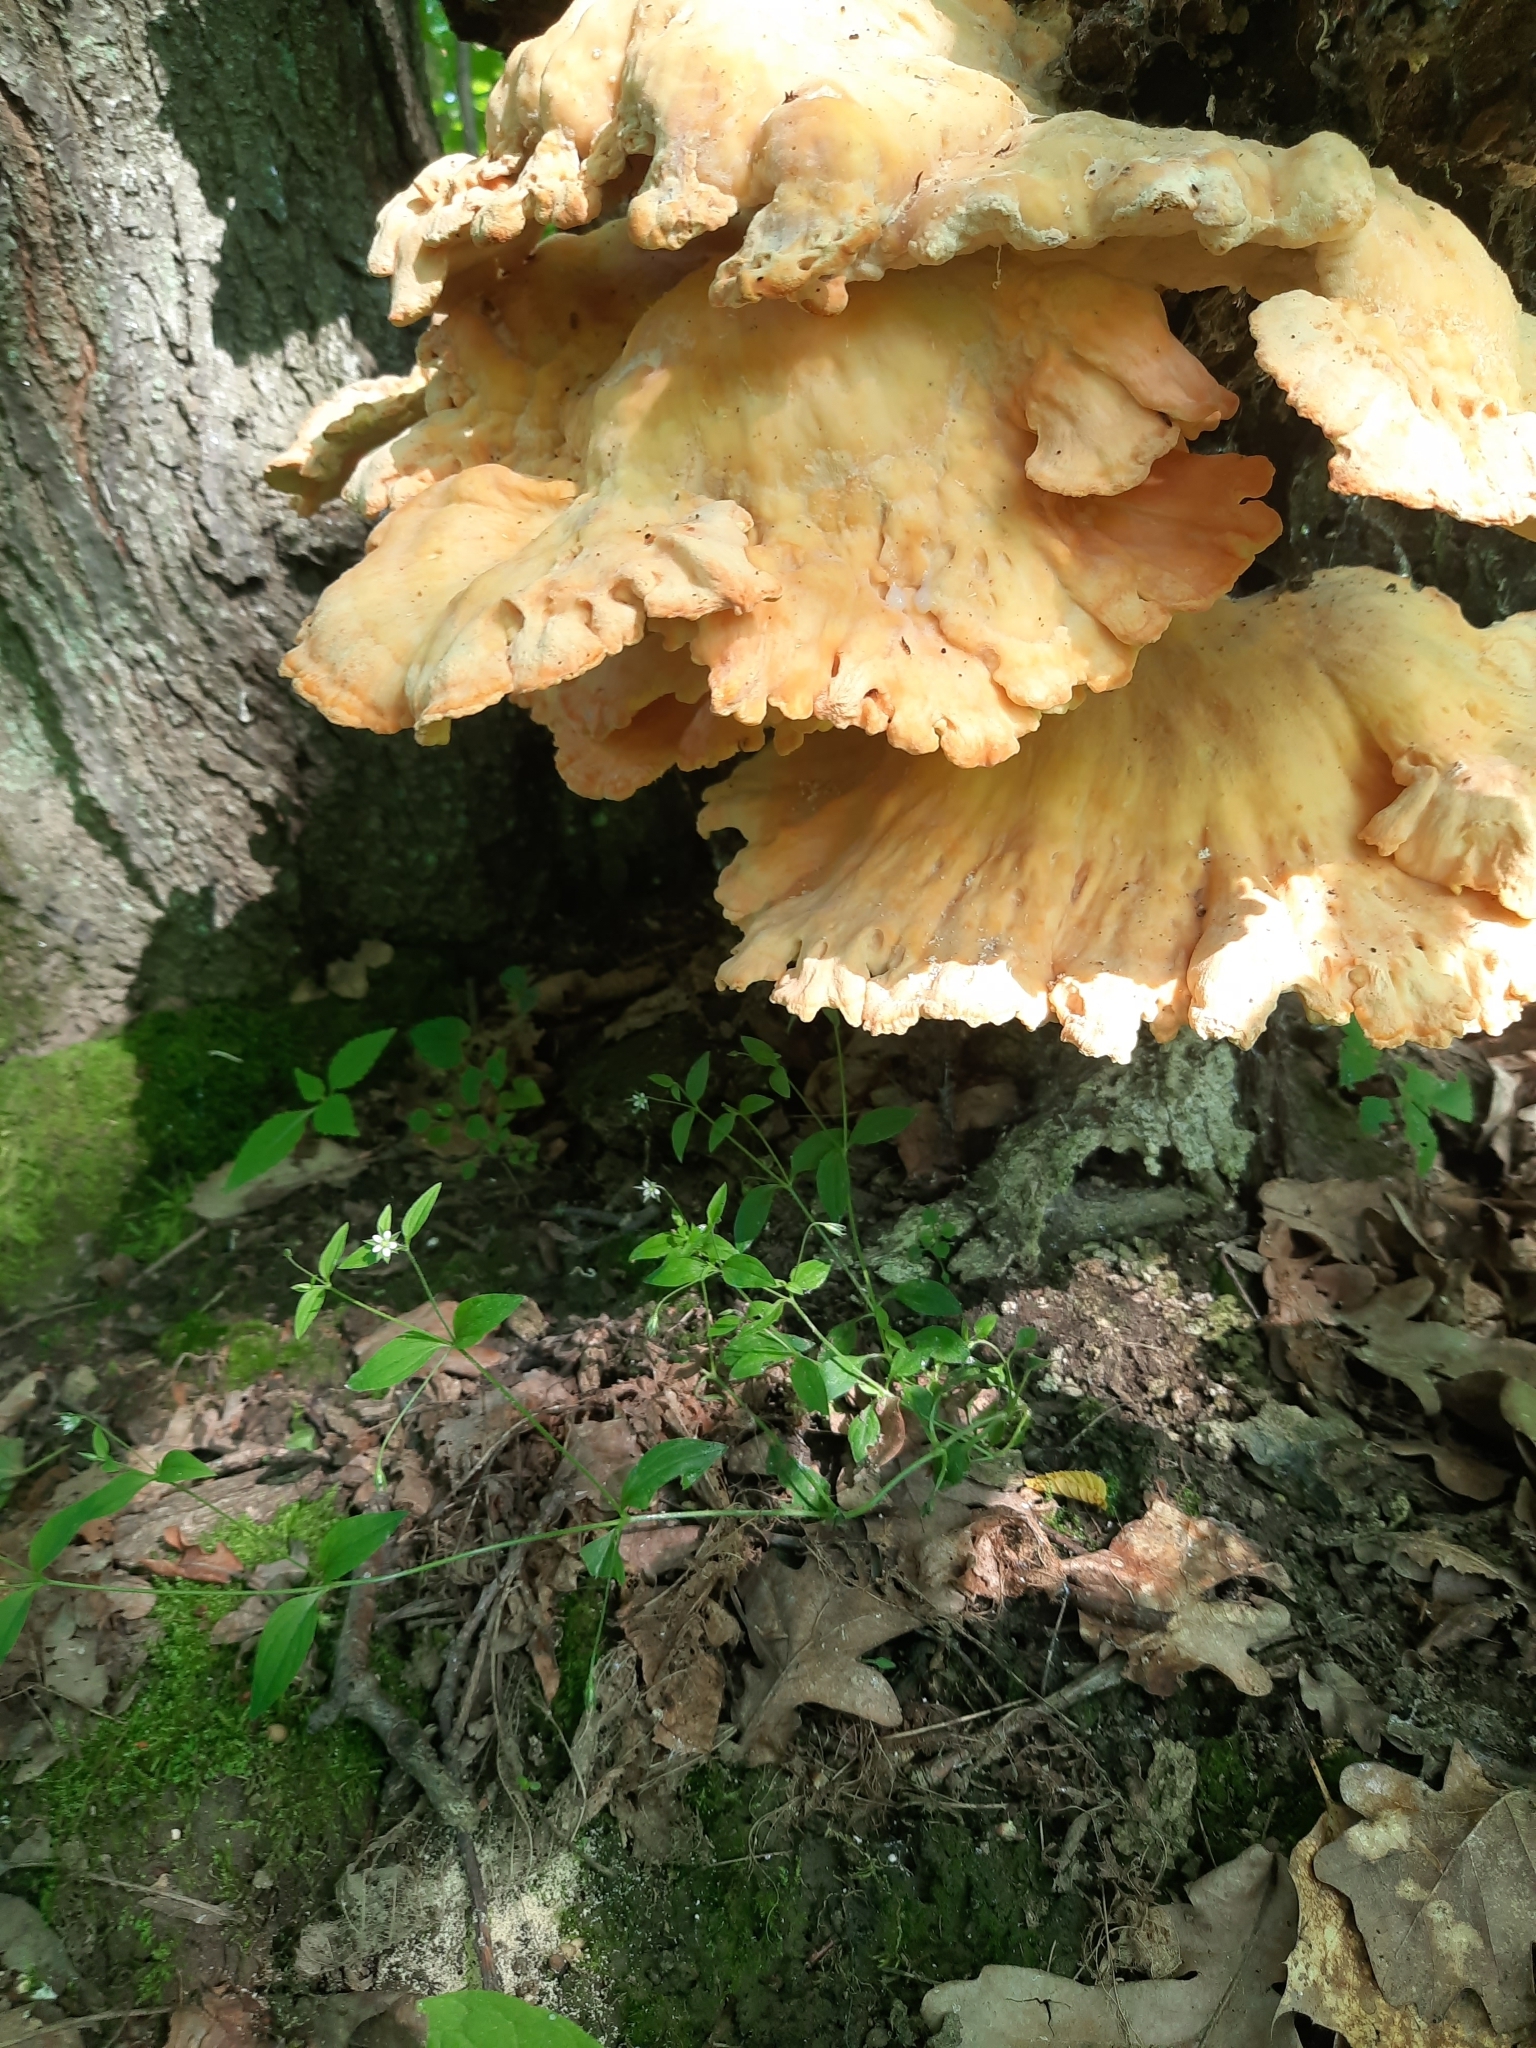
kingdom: Fungi
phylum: Basidiomycota
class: Agaricomycetes
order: Polyporales
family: Laetiporaceae
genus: Laetiporus
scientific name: Laetiporus sulphureus
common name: Chicken of the woods
